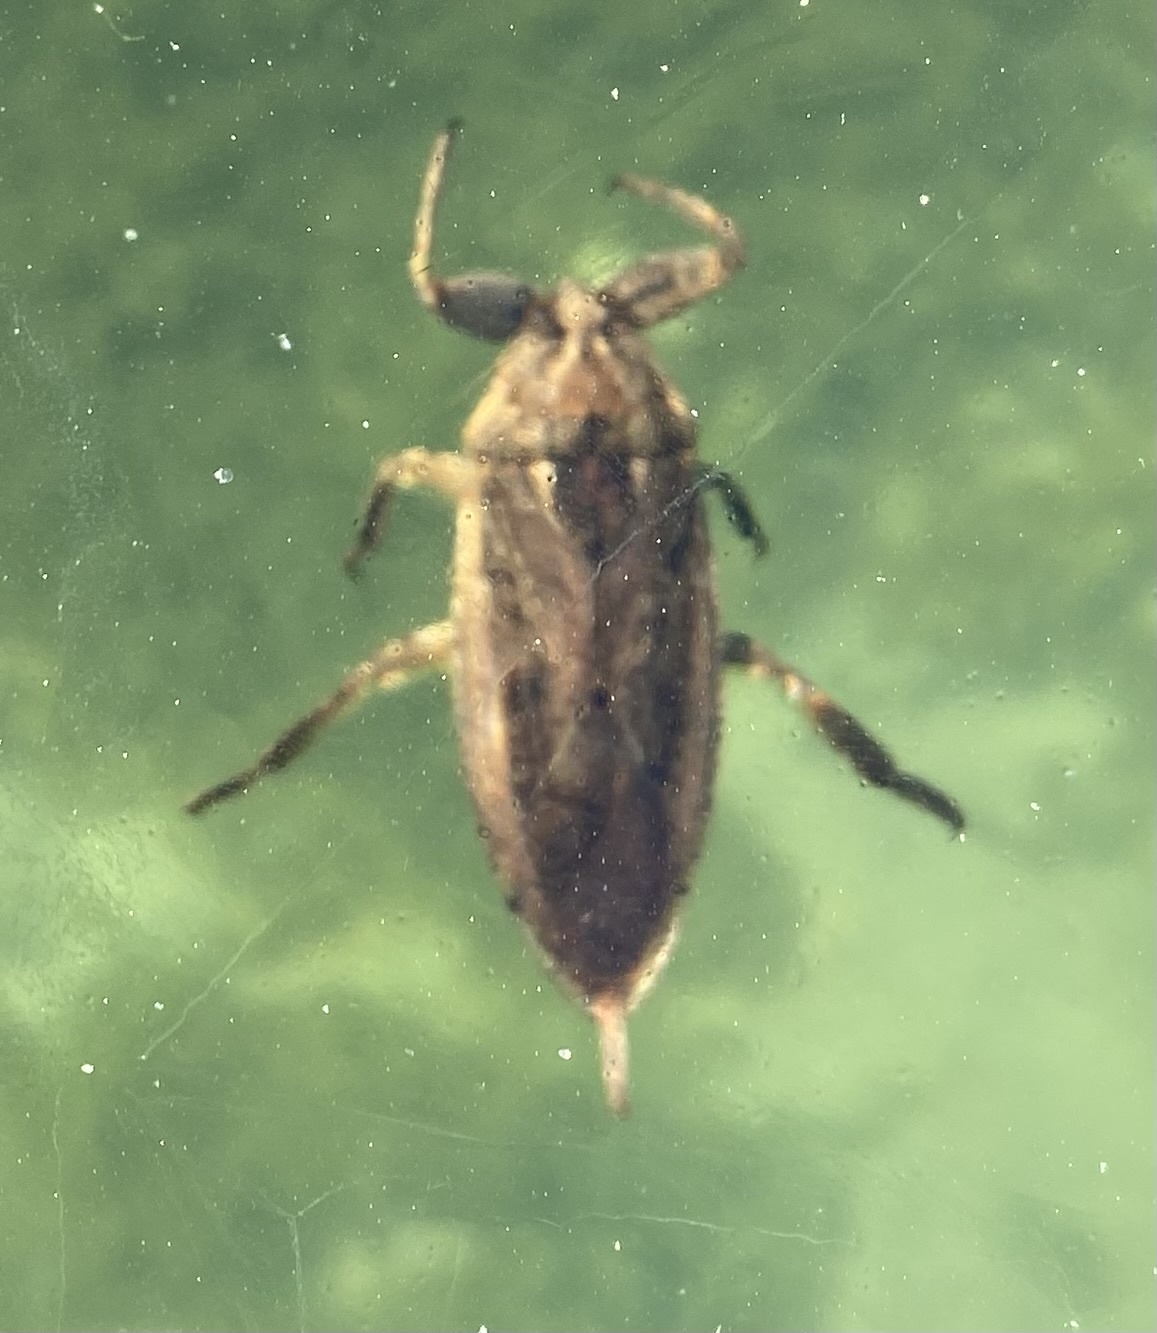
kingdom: Animalia
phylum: Arthropoda
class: Insecta
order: Hemiptera
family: Belostomatidae
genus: Lethocerus
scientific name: Lethocerus americanus
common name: Giant water bug
